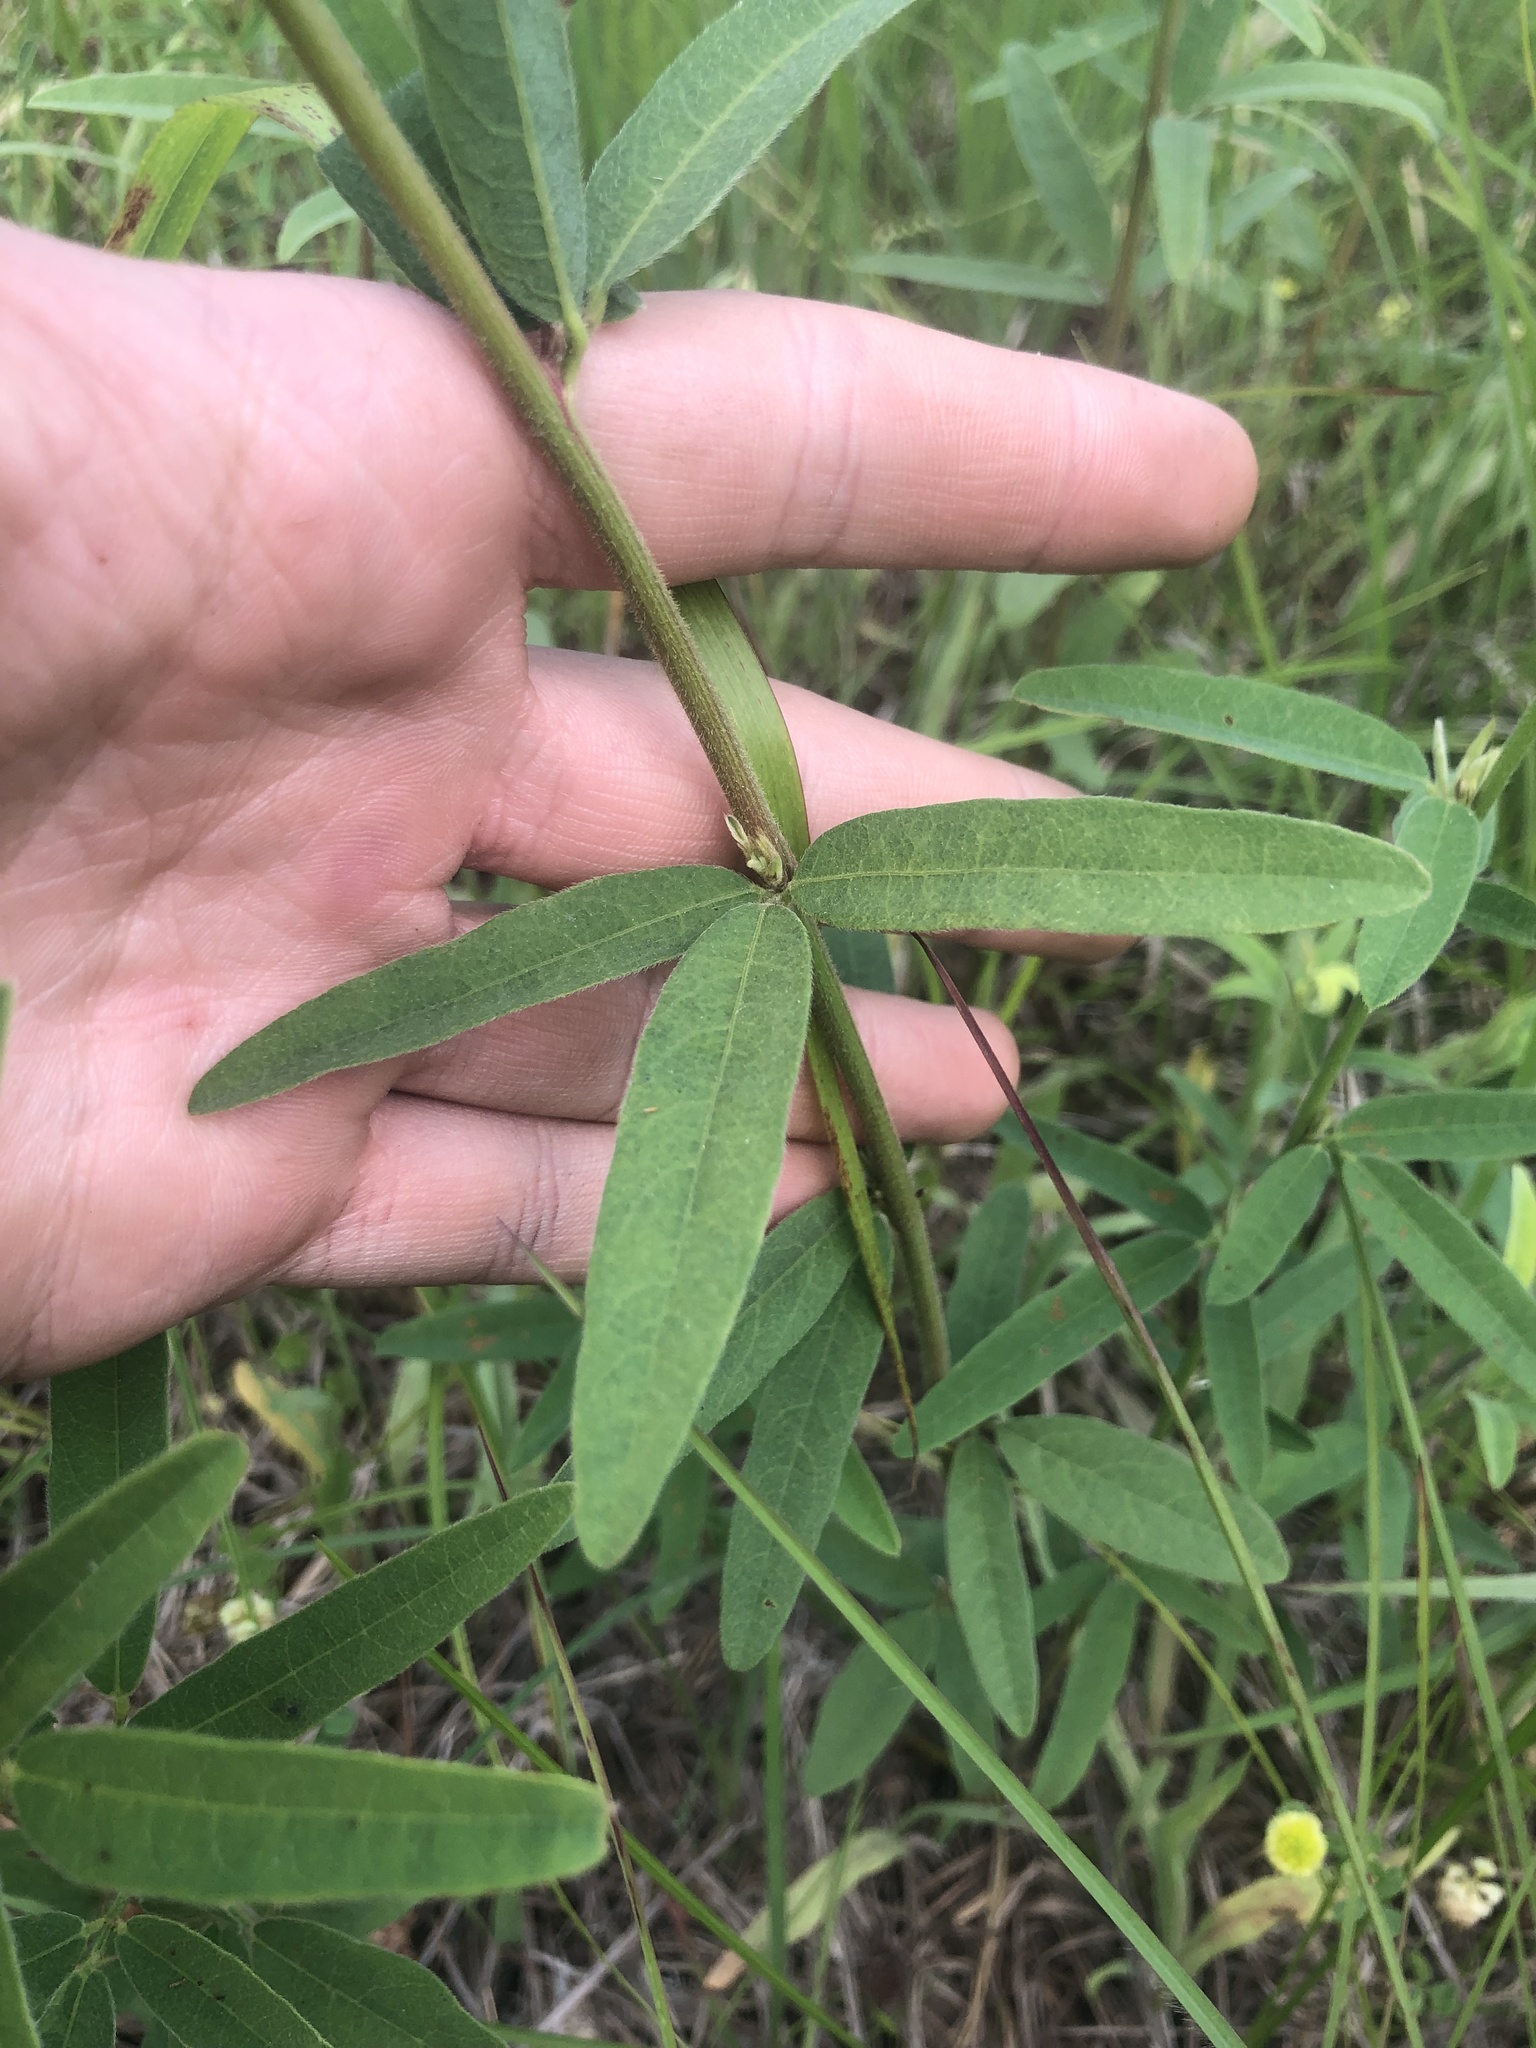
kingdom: Plantae
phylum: Tracheophyta
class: Magnoliopsida
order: Fabales
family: Fabaceae
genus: Desmodium
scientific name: Desmodium sessilifolium
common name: Sessile tick-clover
